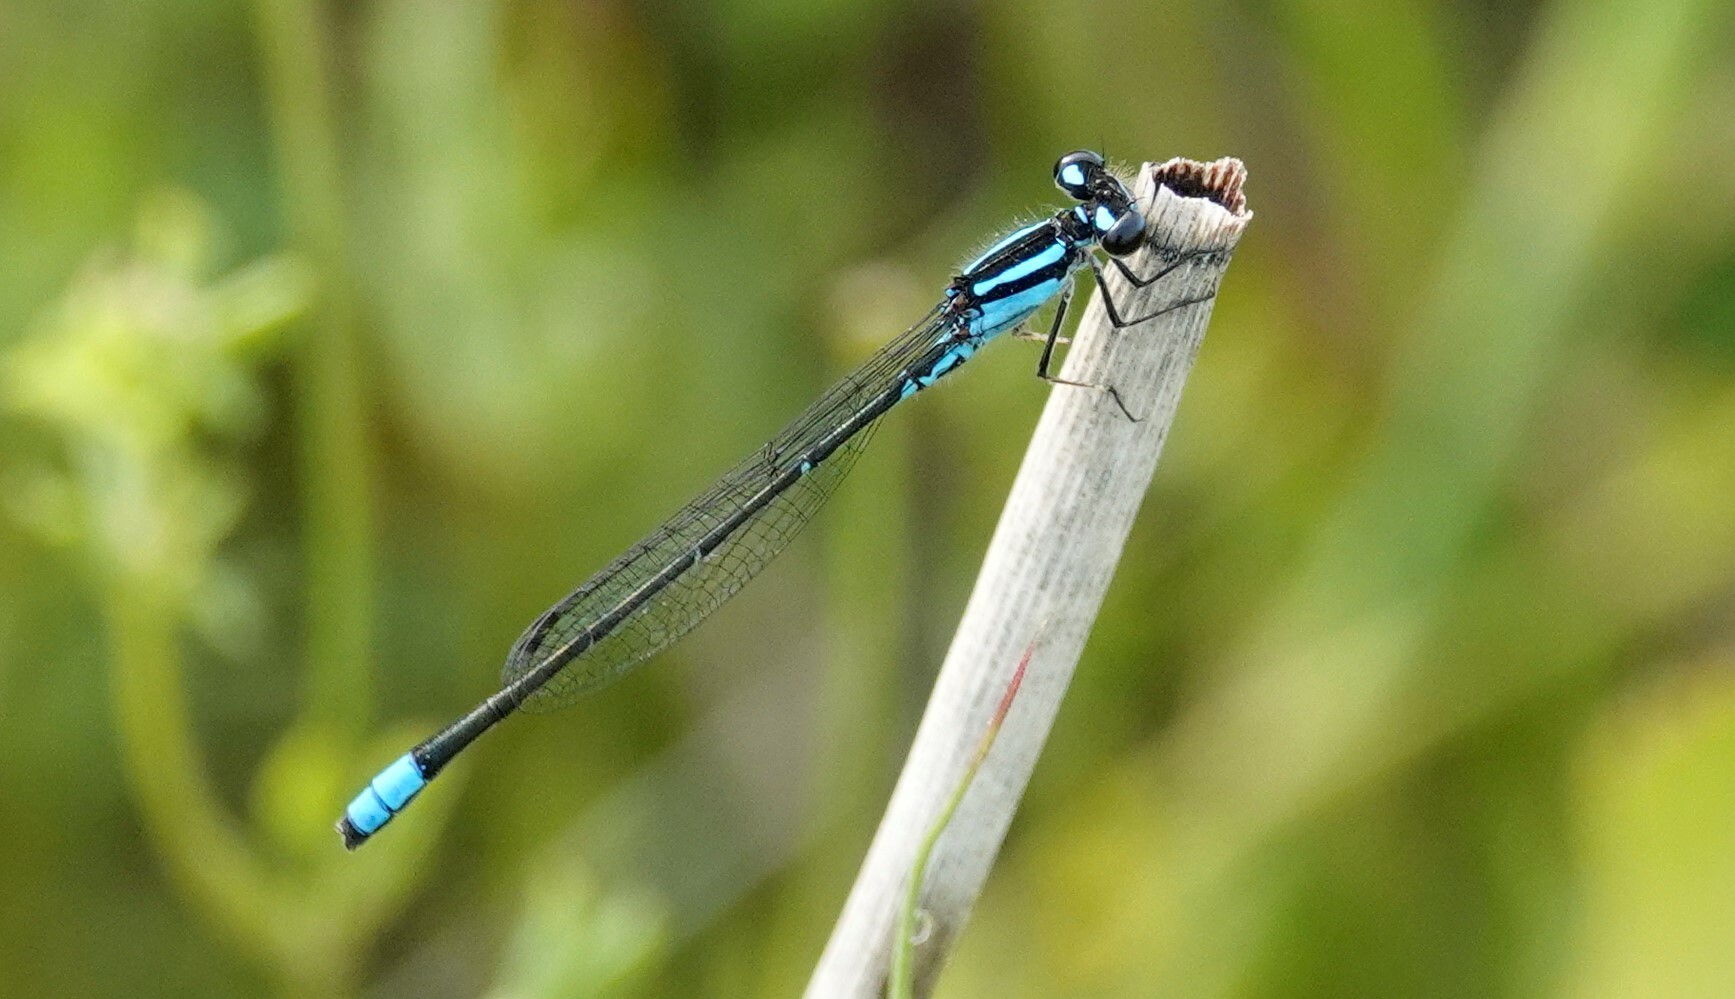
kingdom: Animalia
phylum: Arthropoda
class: Insecta
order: Odonata
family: Coenagrionidae
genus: Enallagma
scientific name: Enallagma geminatum
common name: Skimming bluet
